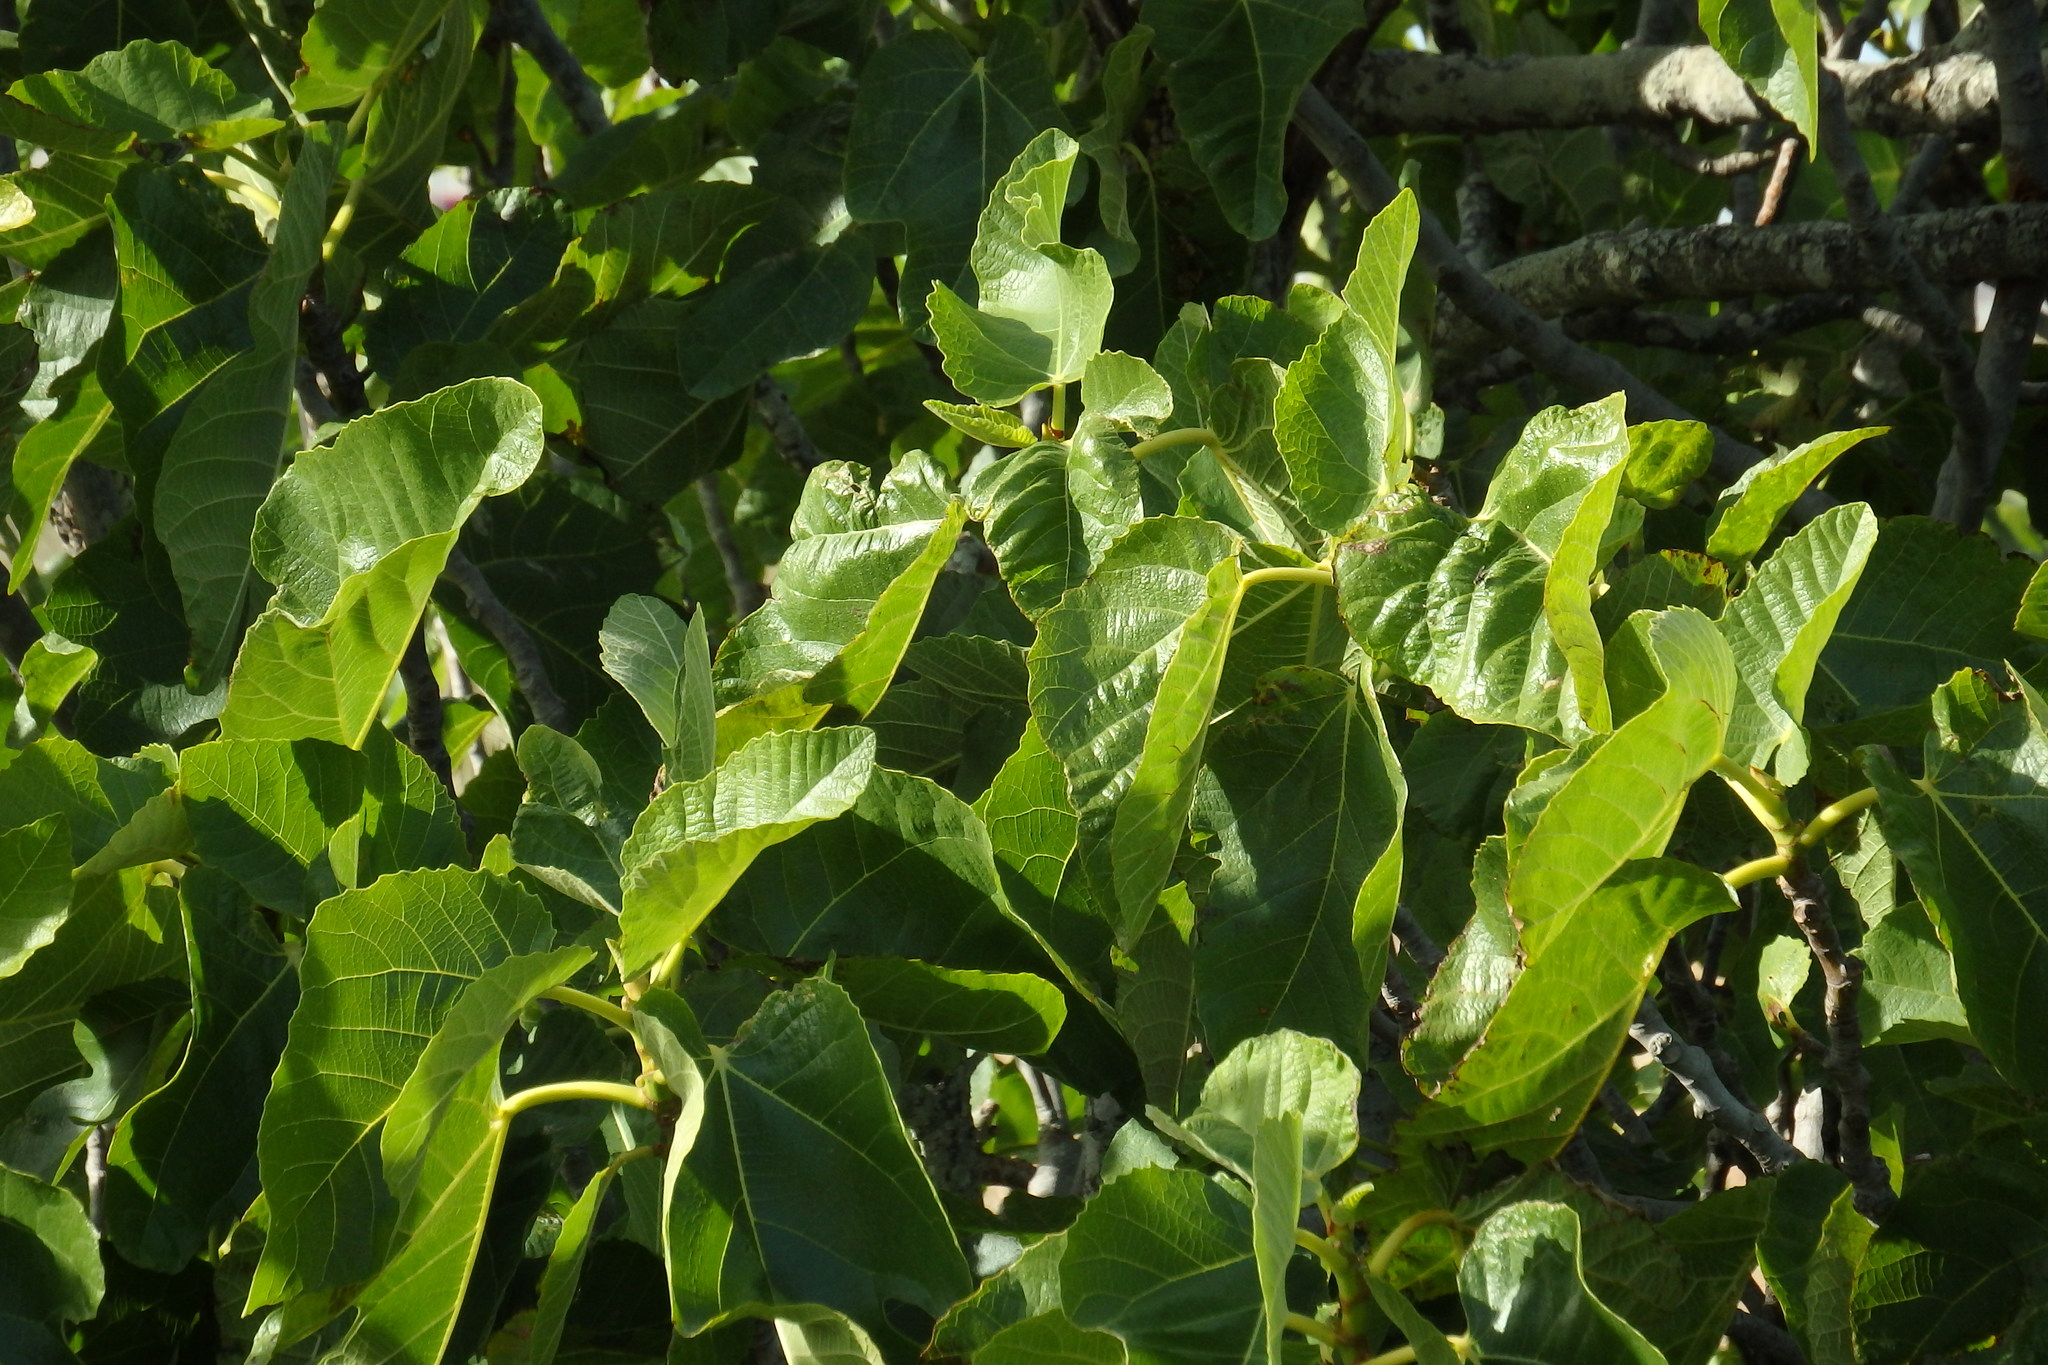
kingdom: Plantae
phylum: Tracheophyta
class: Magnoliopsida
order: Rosales
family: Moraceae
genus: Ficus
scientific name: Ficus carica
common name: Fig
